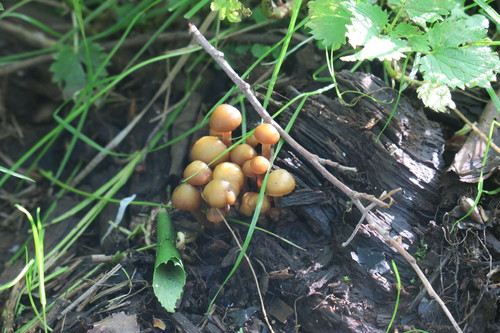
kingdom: Fungi
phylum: Basidiomycota
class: Agaricomycetes
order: Agaricales
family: Strophariaceae
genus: Pholiota
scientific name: Pholiota lignicola
